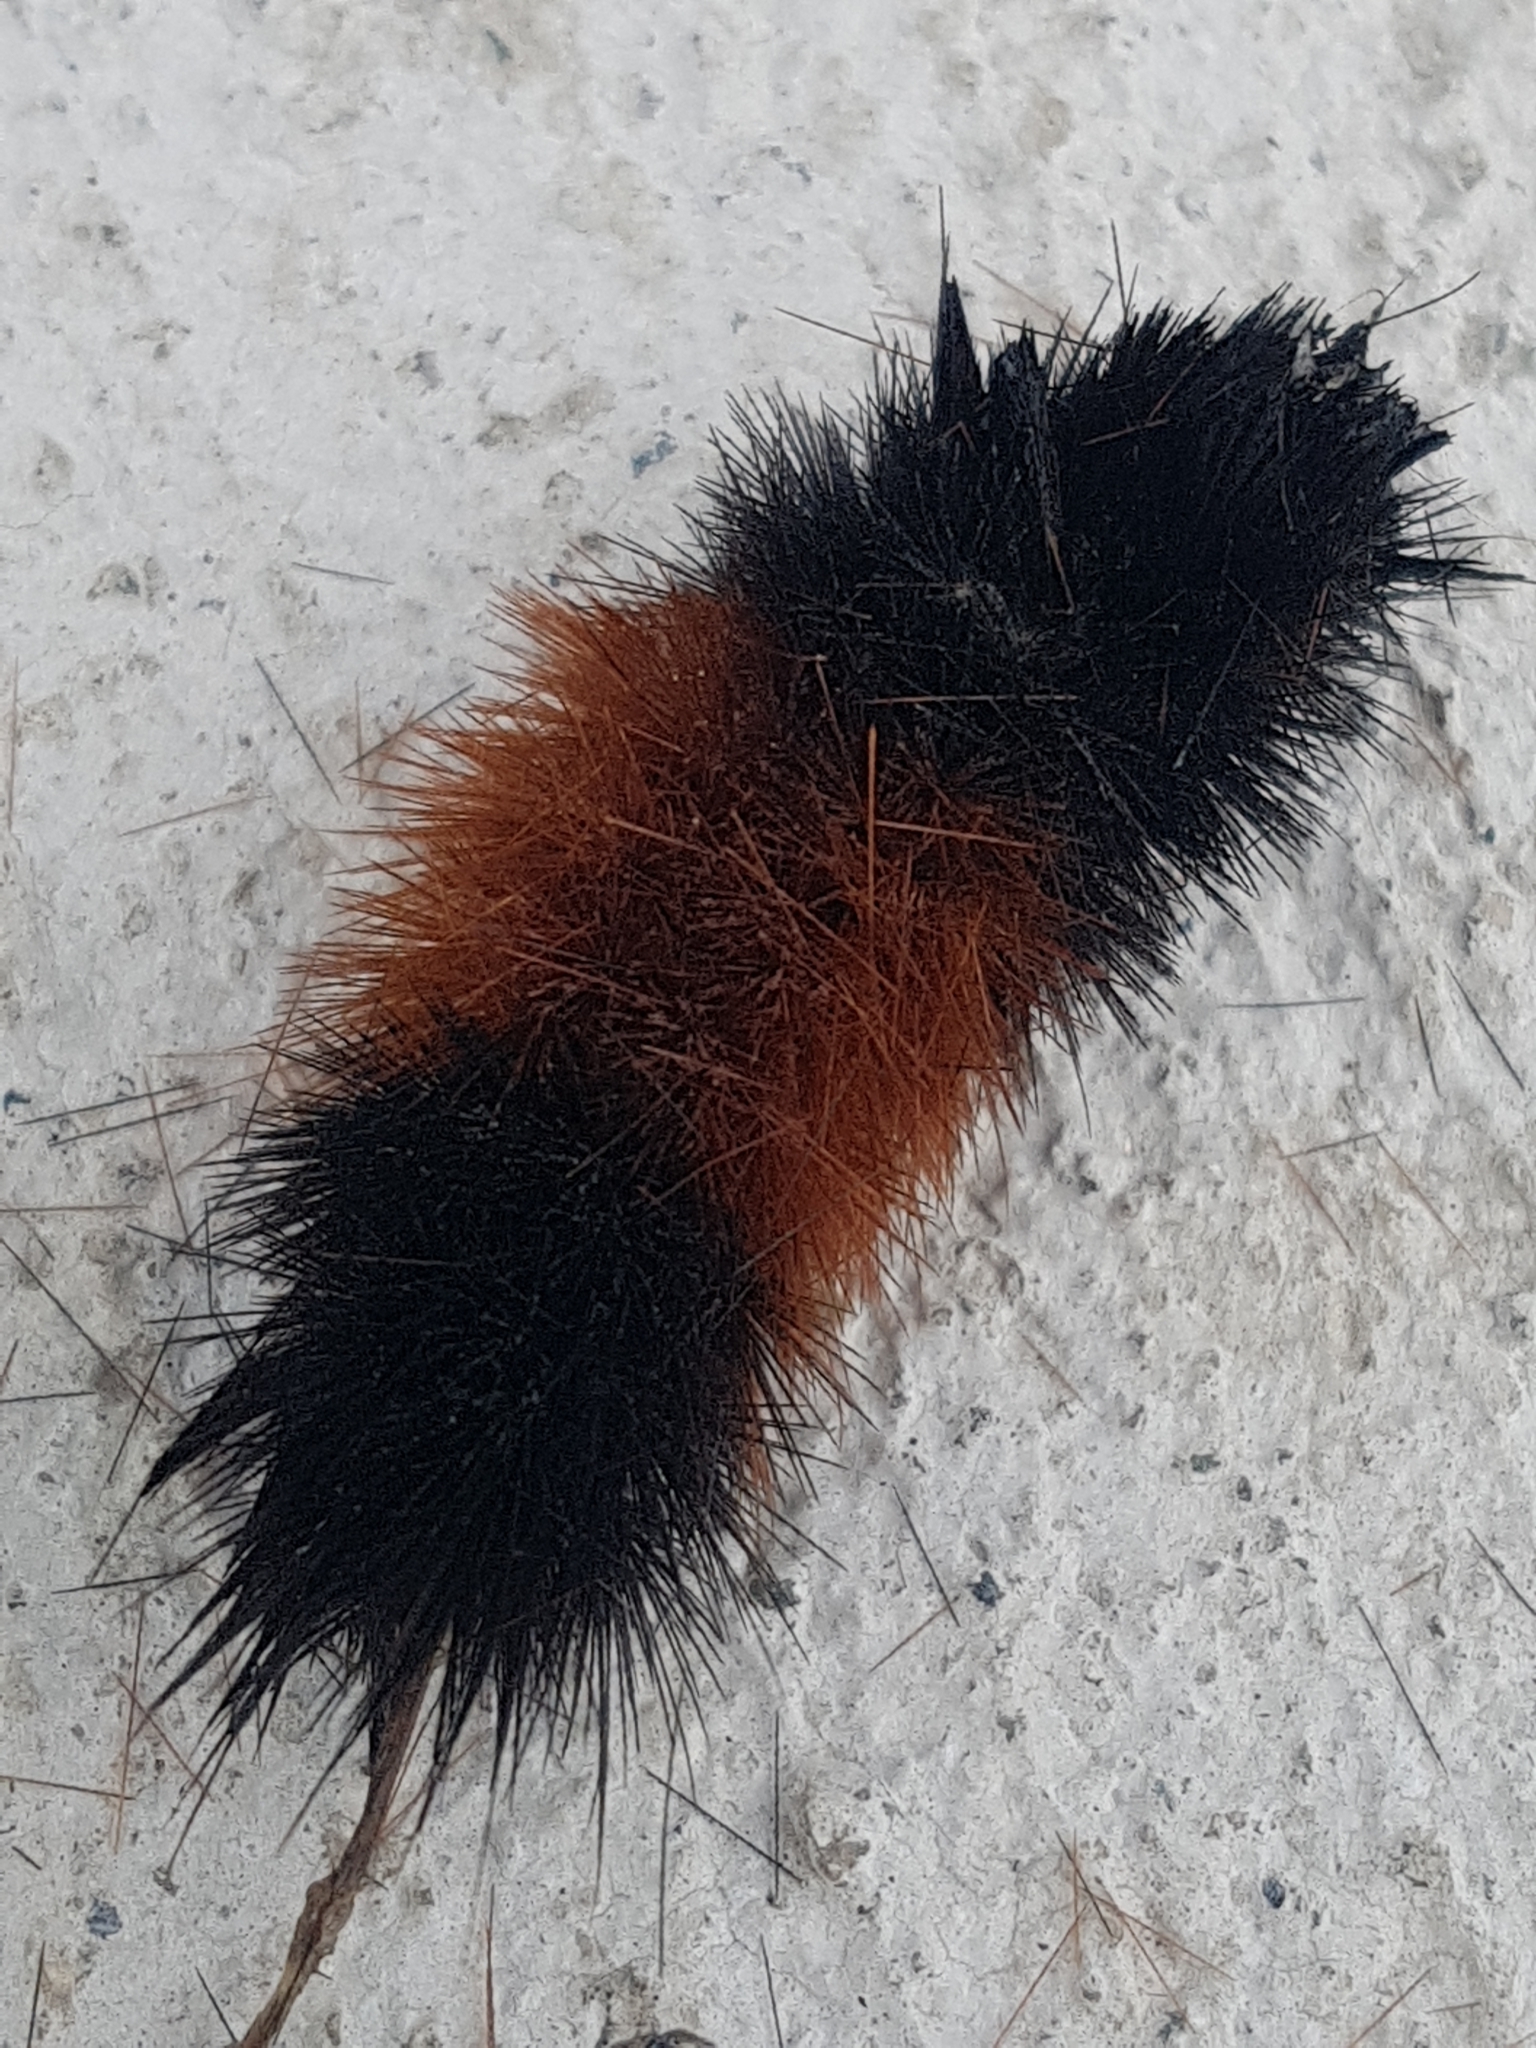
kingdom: Animalia
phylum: Arthropoda
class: Insecta
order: Lepidoptera
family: Erebidae
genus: Pyrrharctia
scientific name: Pyrrharctia isabella
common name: Isabella tiger moth
